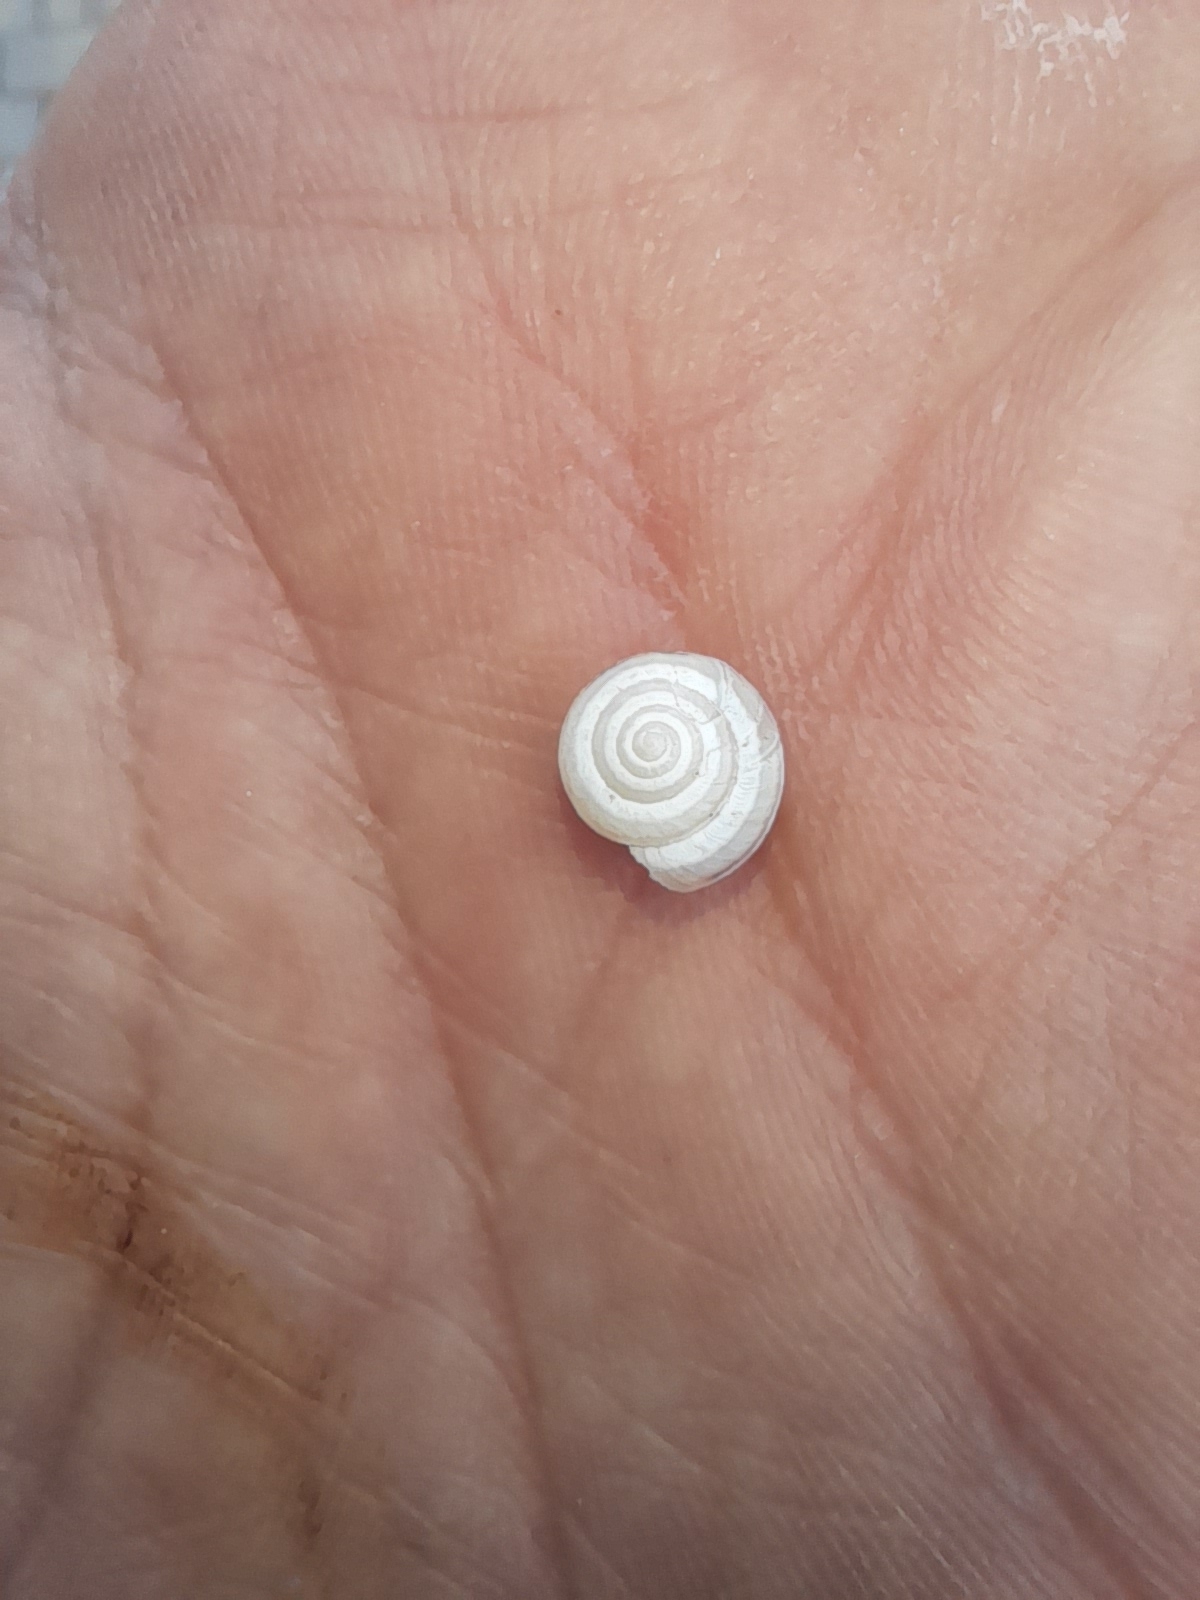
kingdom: Animalia
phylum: Mollusca
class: Gastropoda
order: Stylommatophora
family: Geomitridae
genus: Cernuella
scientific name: Cernuella virgata
